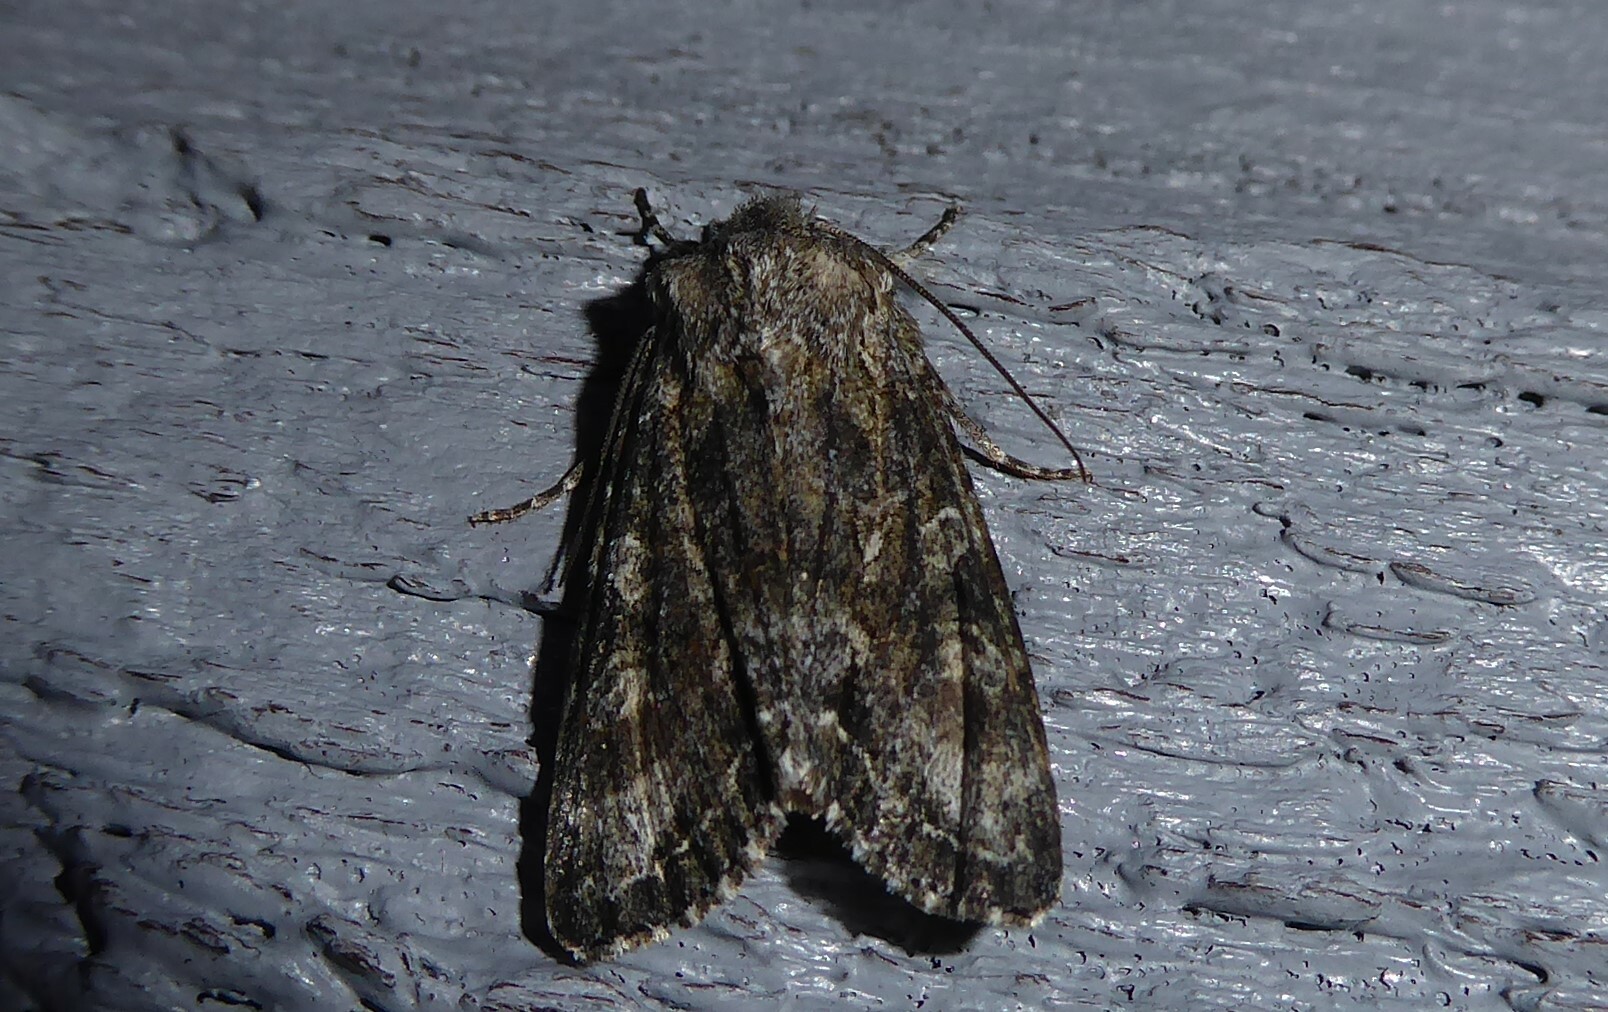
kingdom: Animalia
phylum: Arthropoda
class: Insecta
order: Lepidoptera
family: Noctuidae
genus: Ichneutica
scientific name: Ichneutica mutans
